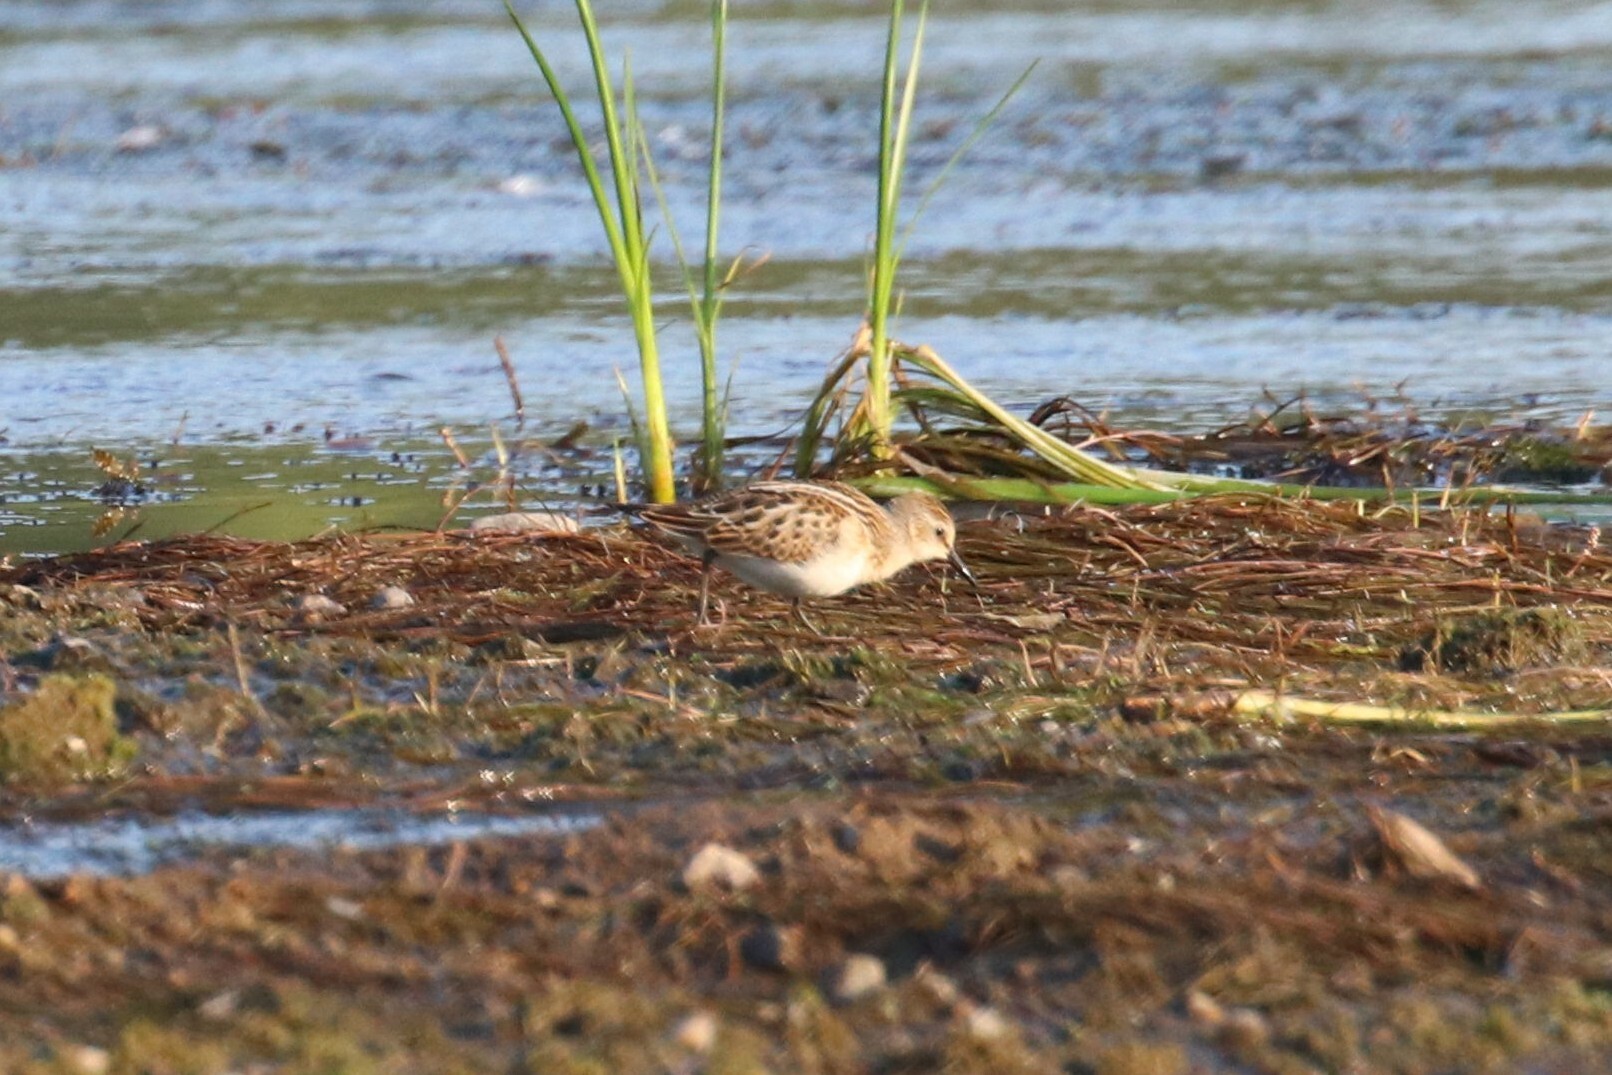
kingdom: Animalia
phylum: Chordata
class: Aves
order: Charadriiformes
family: Scolopacidae
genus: Calidris
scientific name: Calidris minuta
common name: Little stint
